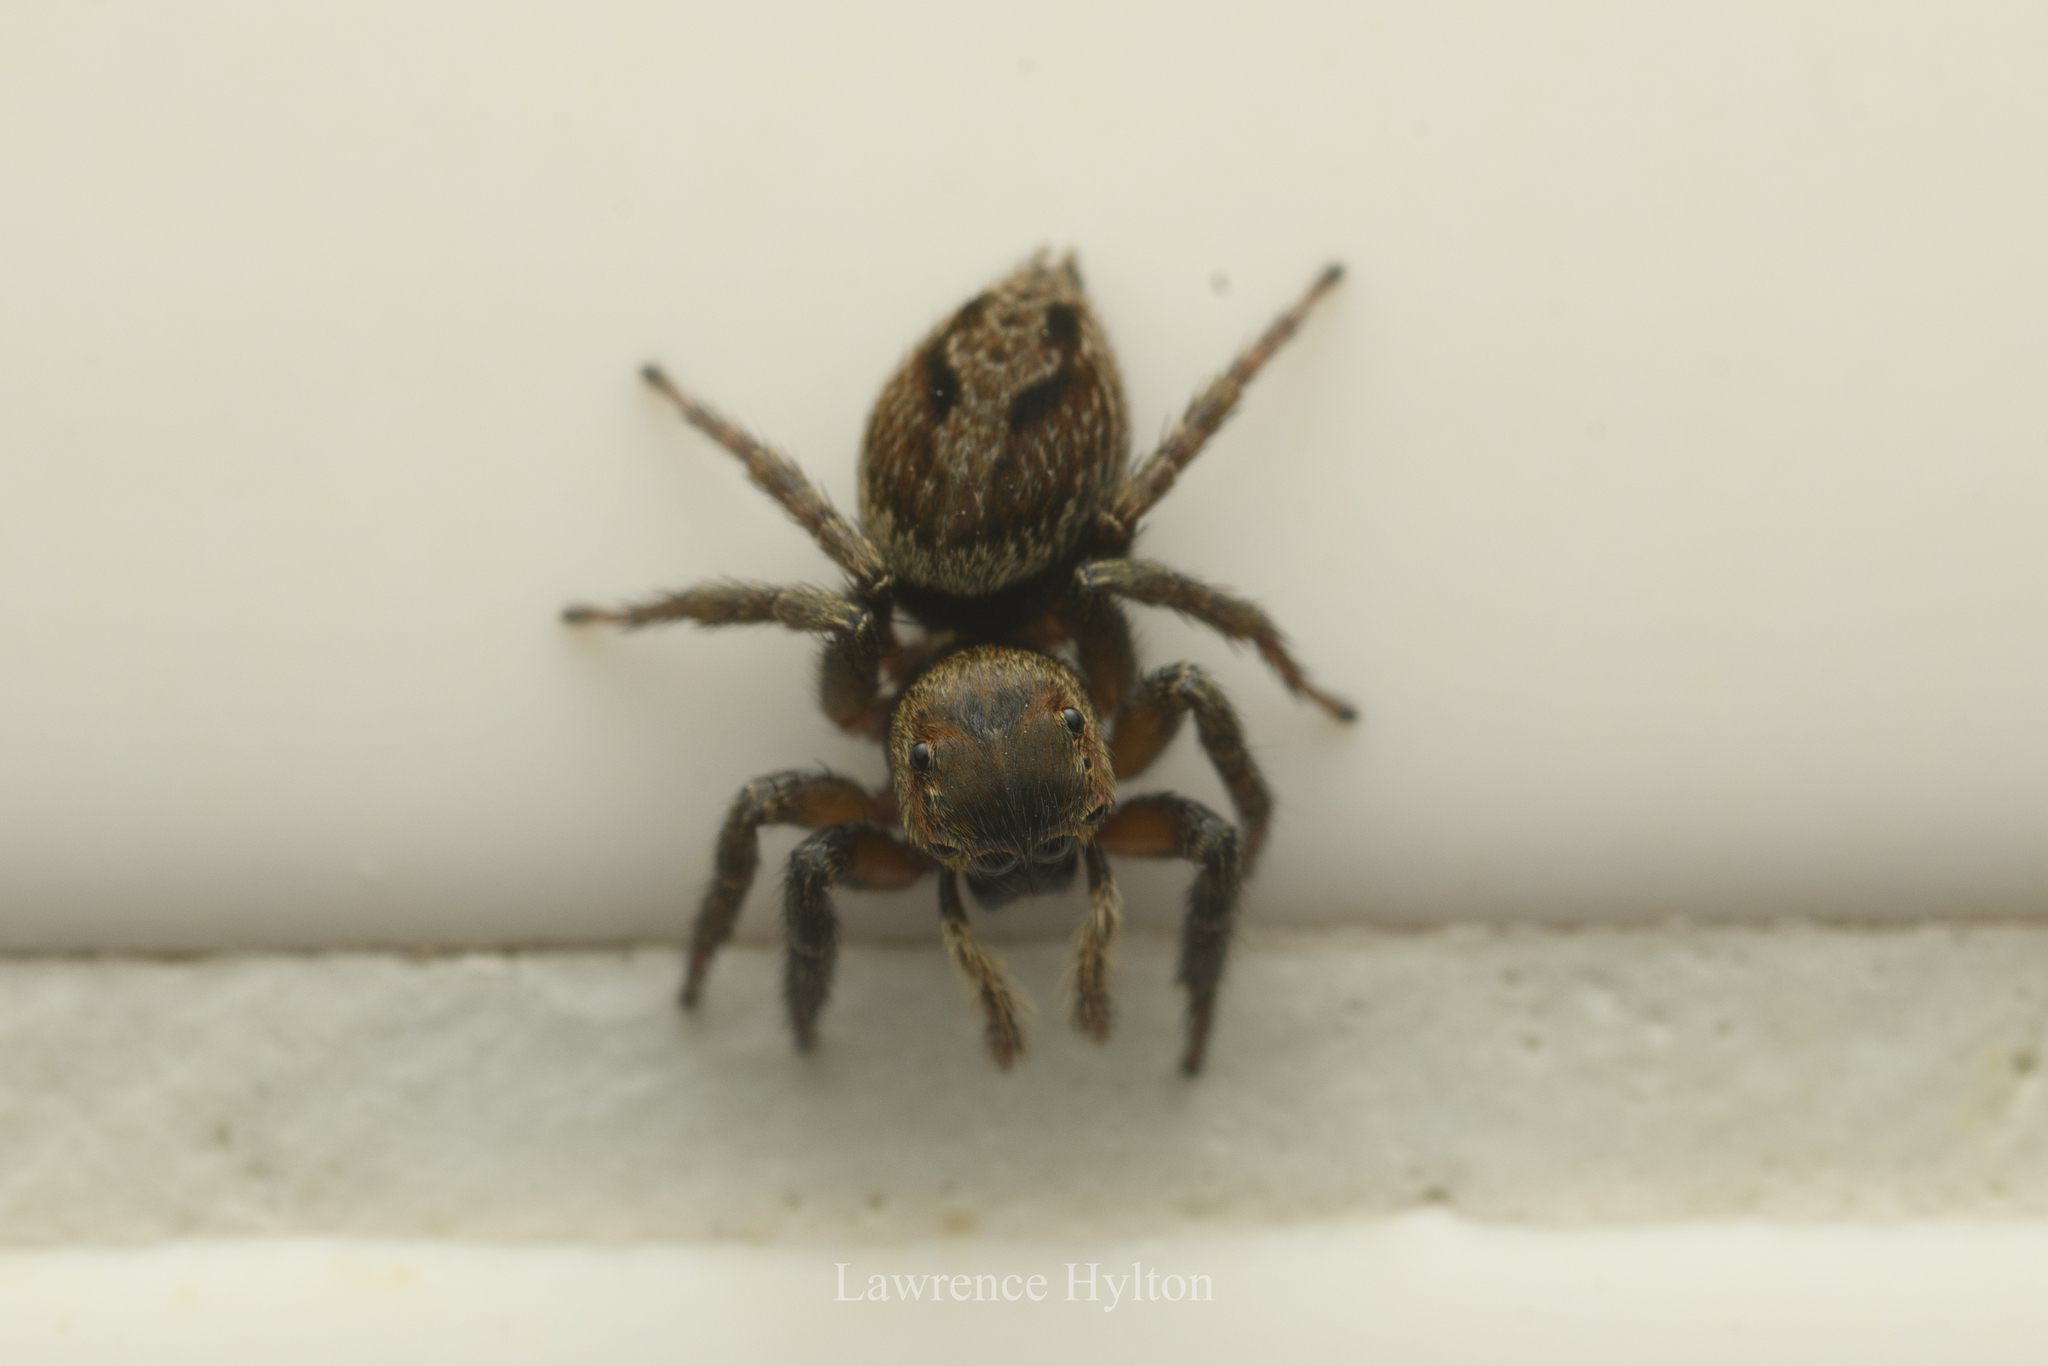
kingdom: Animalia
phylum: Arthropoda
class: Arachnida
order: Araneae
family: Salticidae
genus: Hasarius
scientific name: Hasarius adansoni
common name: Jumping spider
